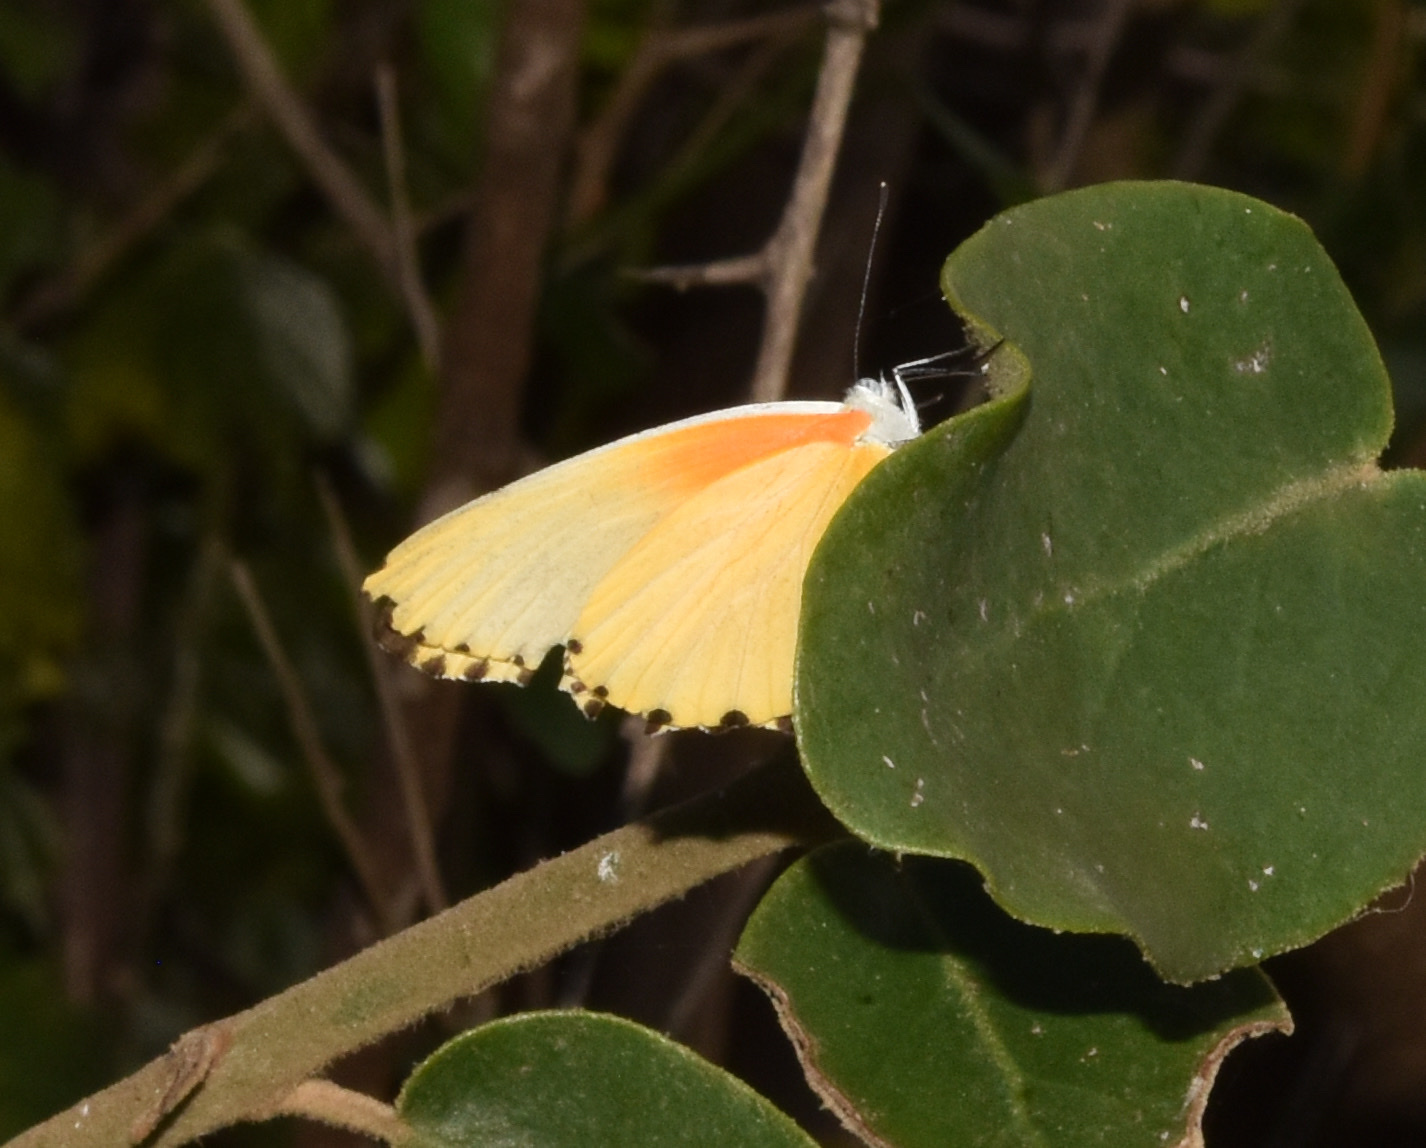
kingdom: Animalia
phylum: Arthropoda
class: Insecta
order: Lepidoptera
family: Pieridae
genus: Mylothris
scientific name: Mylothris agathina
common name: Eastern dotted border
